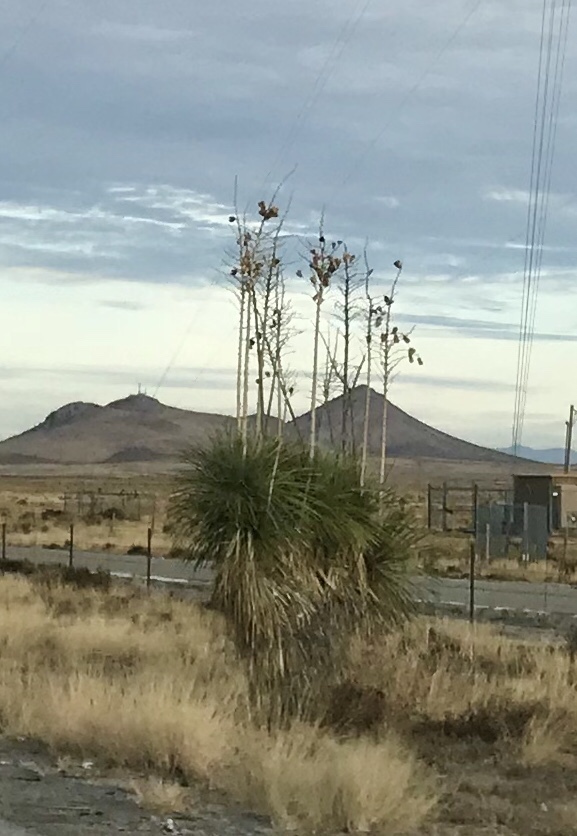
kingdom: Plantae
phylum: Tracheophyta
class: Liliopsida
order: Asparagales
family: Asparagaceae
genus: Yucca
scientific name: Yucca elata
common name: Palmella
